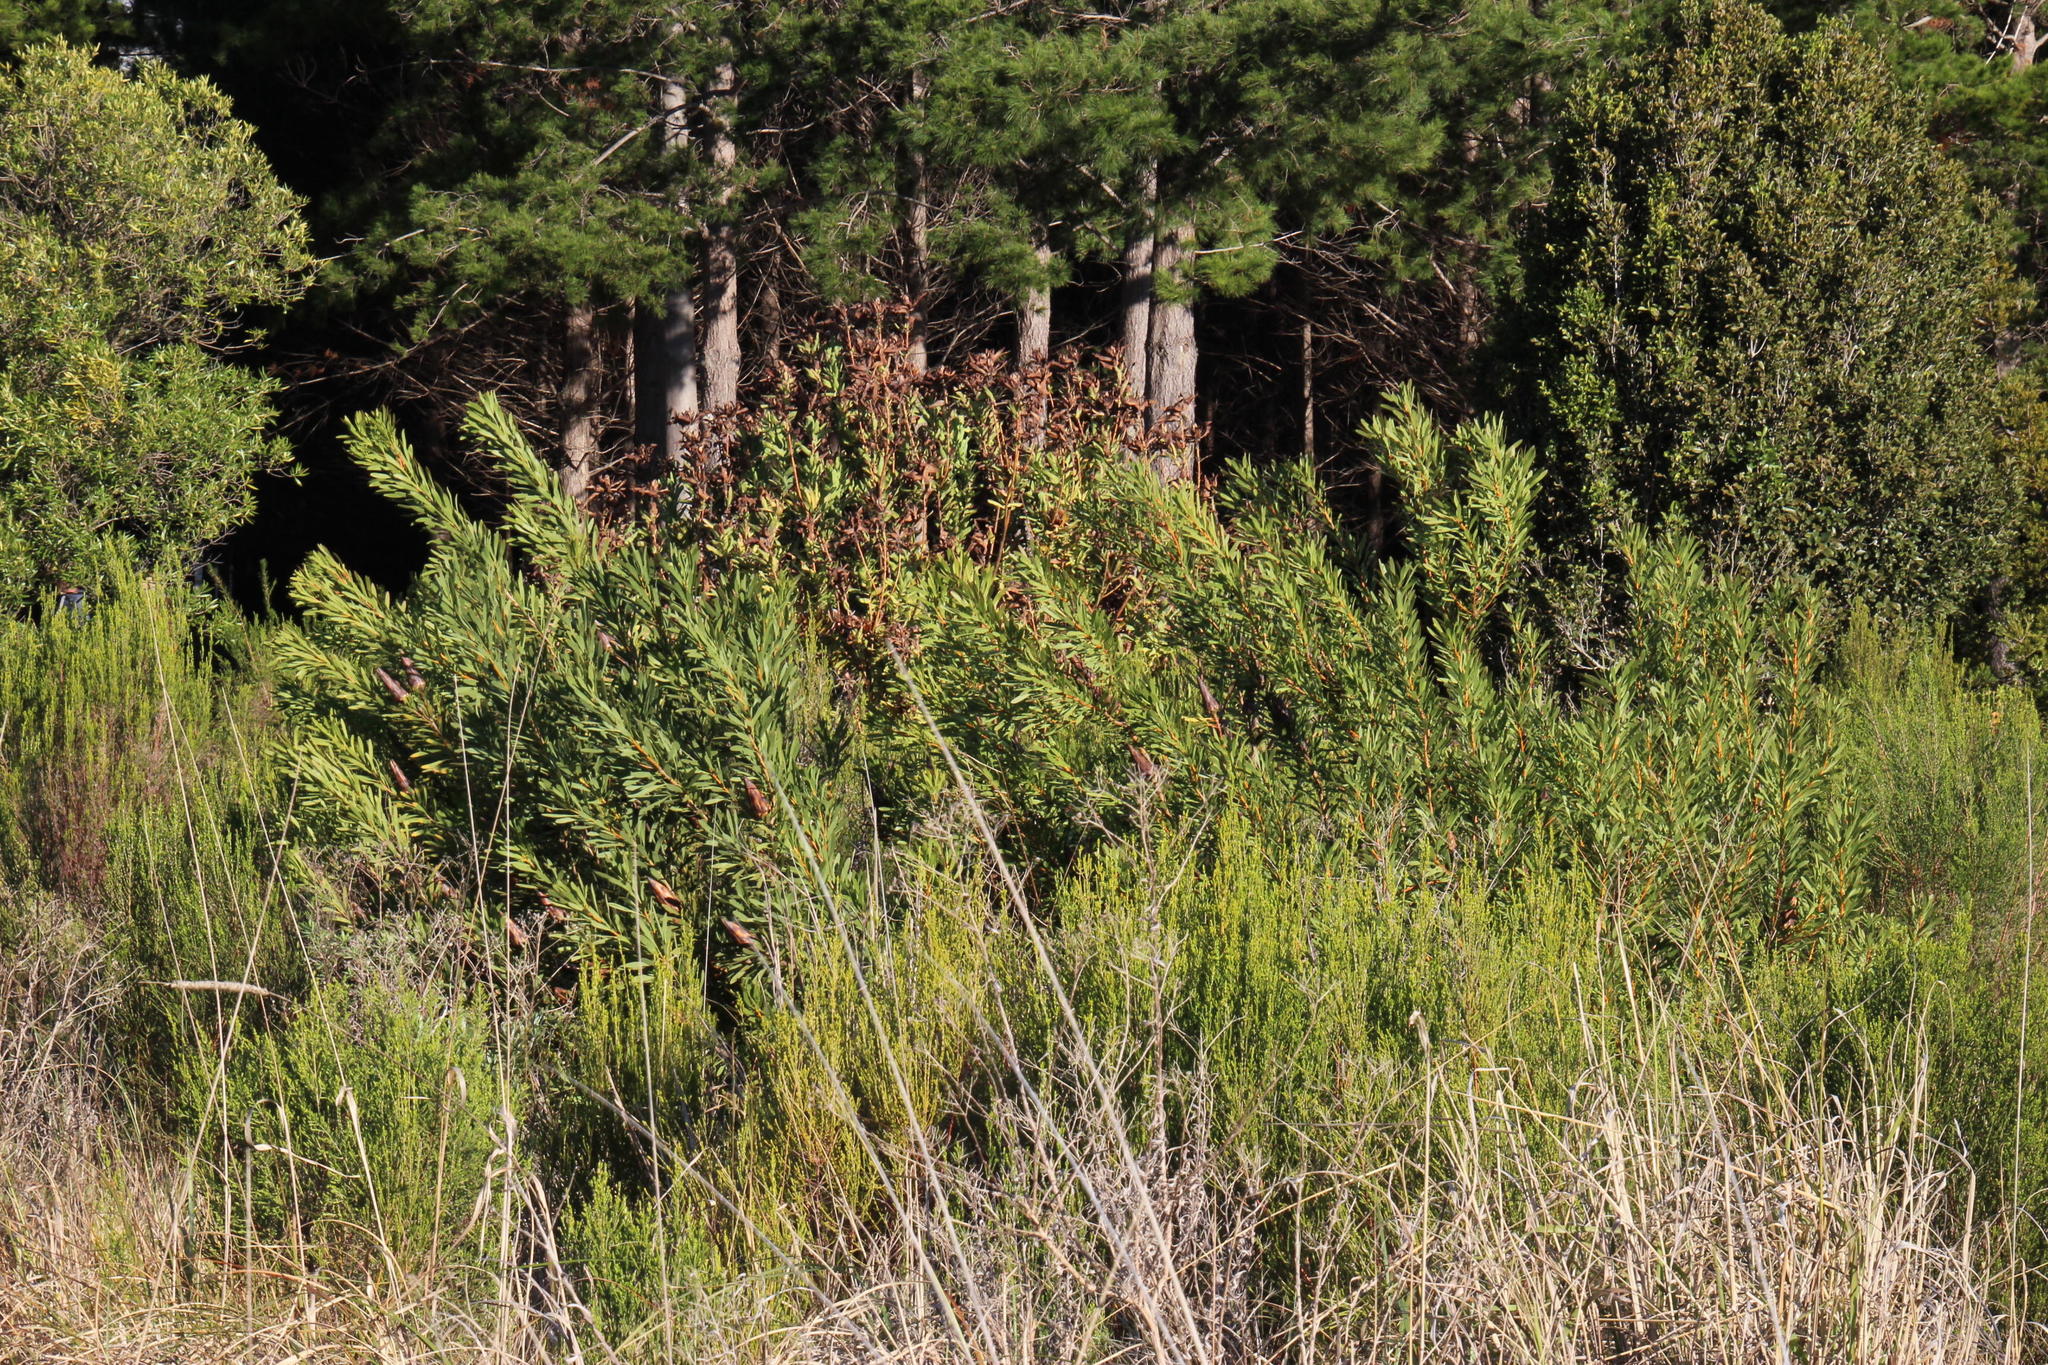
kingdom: Plantae
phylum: Tracheophyta
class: Magnoliopsida
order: Proteales
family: Proteaceae
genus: Protea
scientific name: Protea coronata
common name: Green sugarbush
